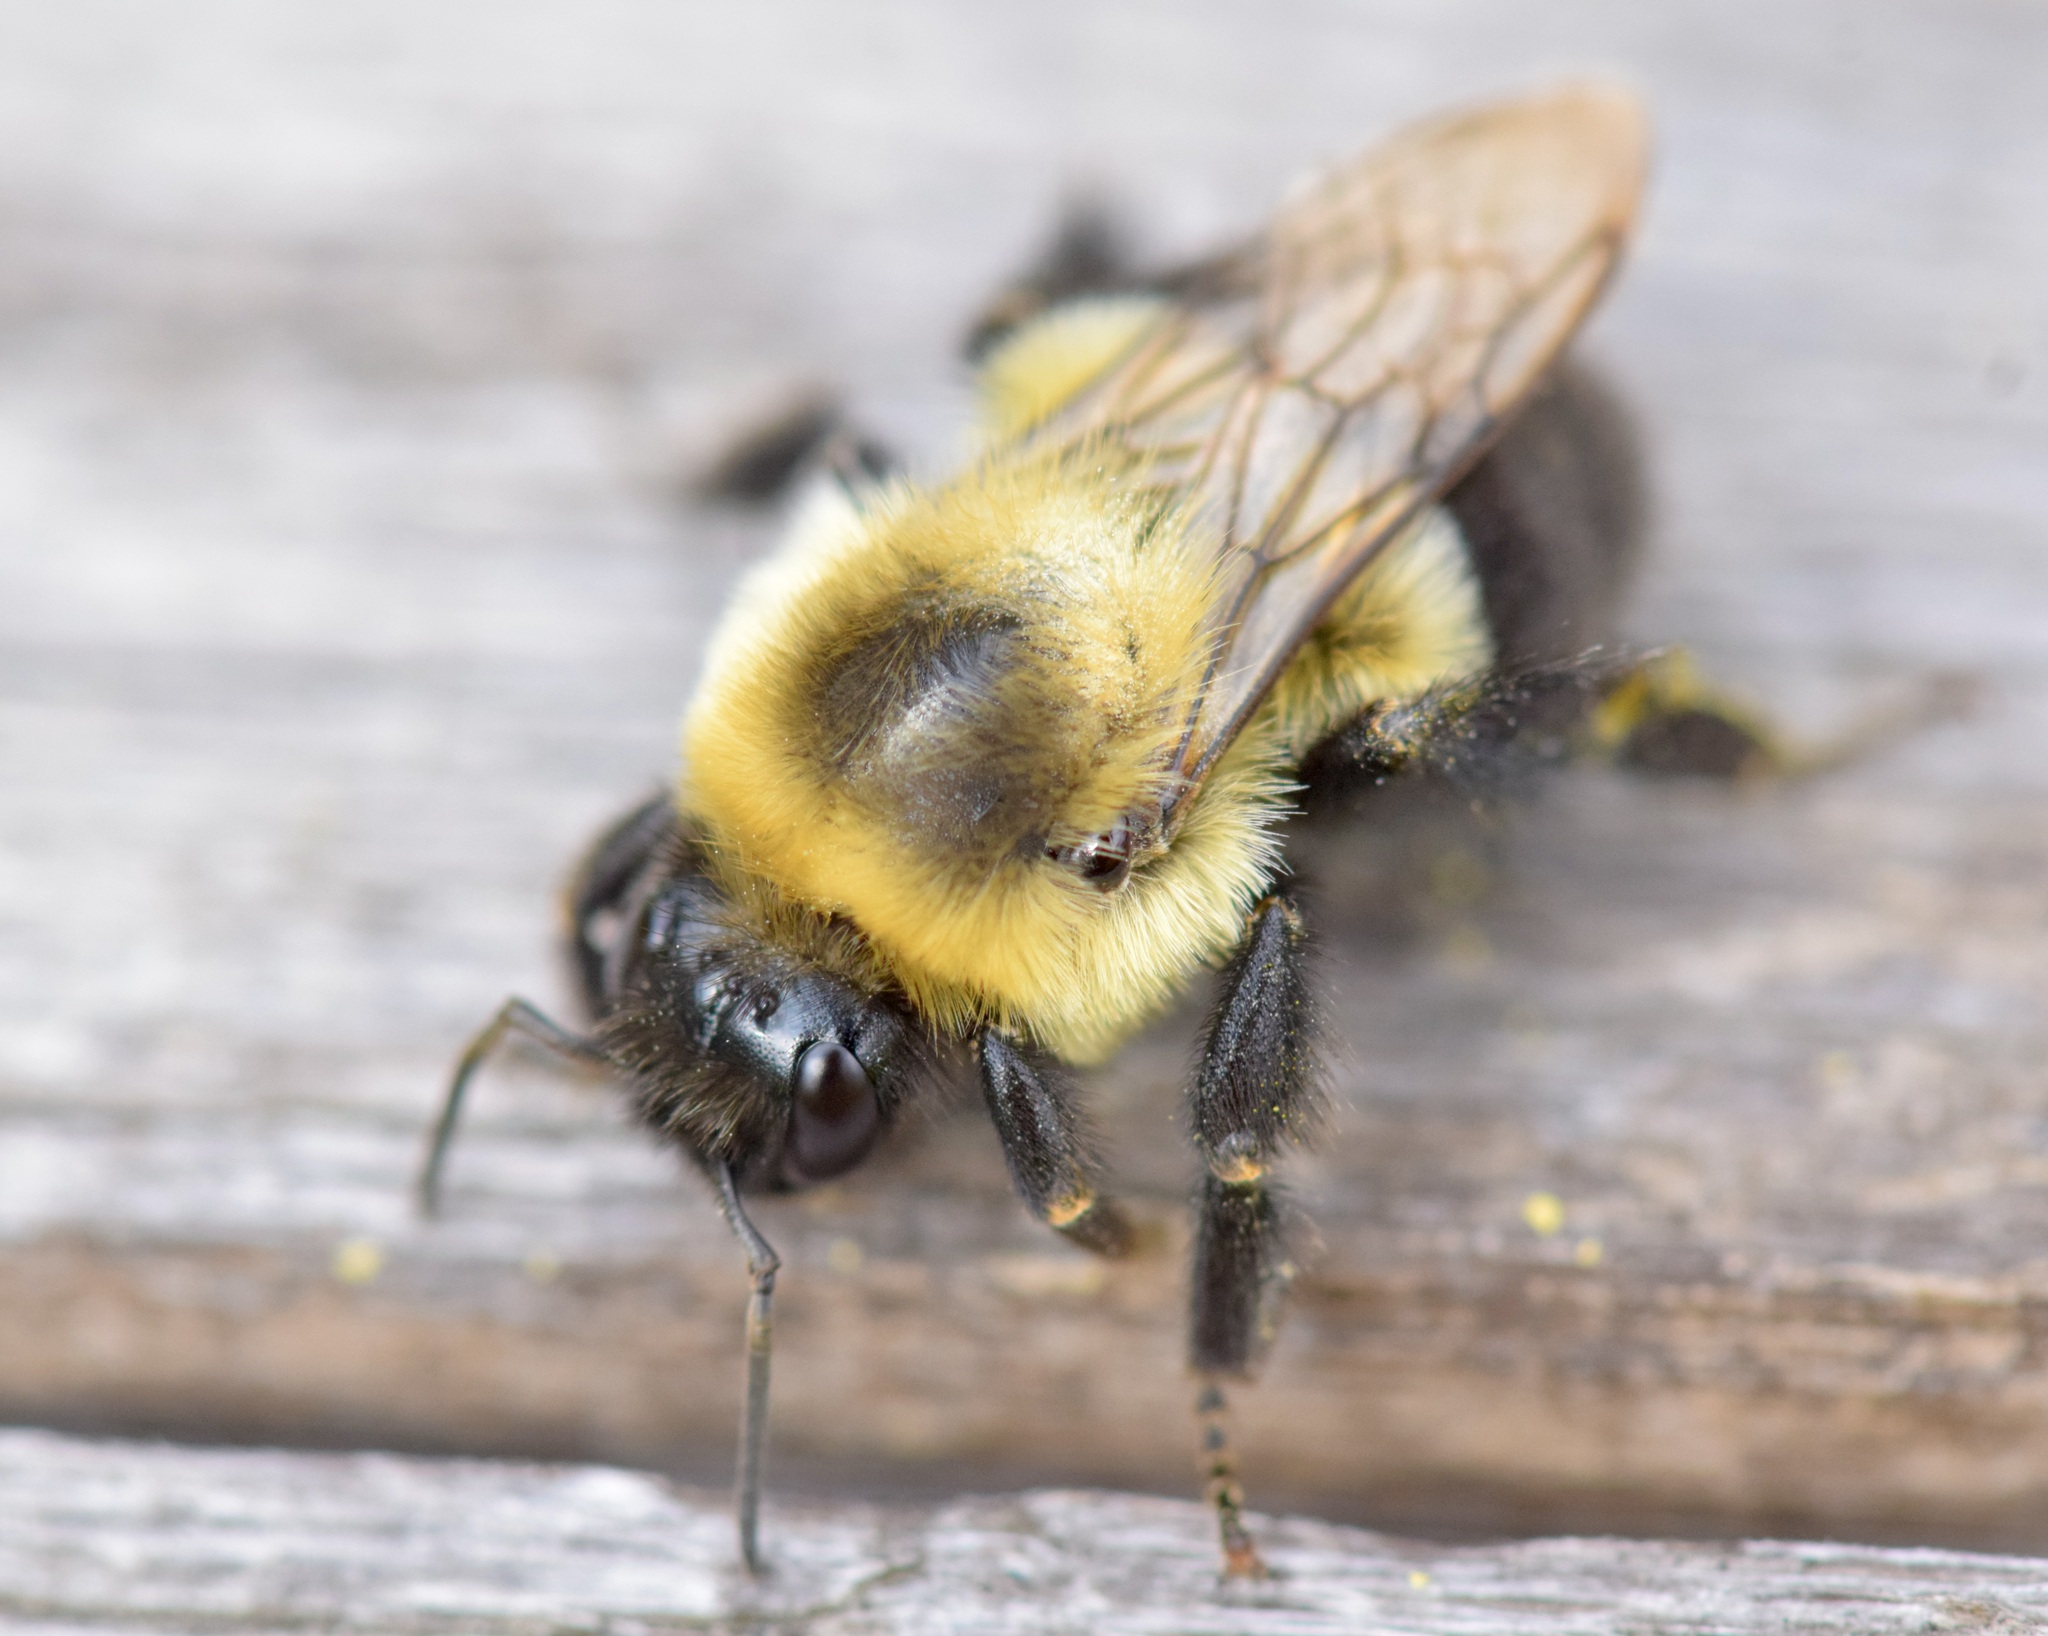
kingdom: Animalia
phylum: Arthropoda
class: Insecta
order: Hymenoptera
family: Apidae
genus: Bombus
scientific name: Bombus impatiens
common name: Common eastern bumble bee
